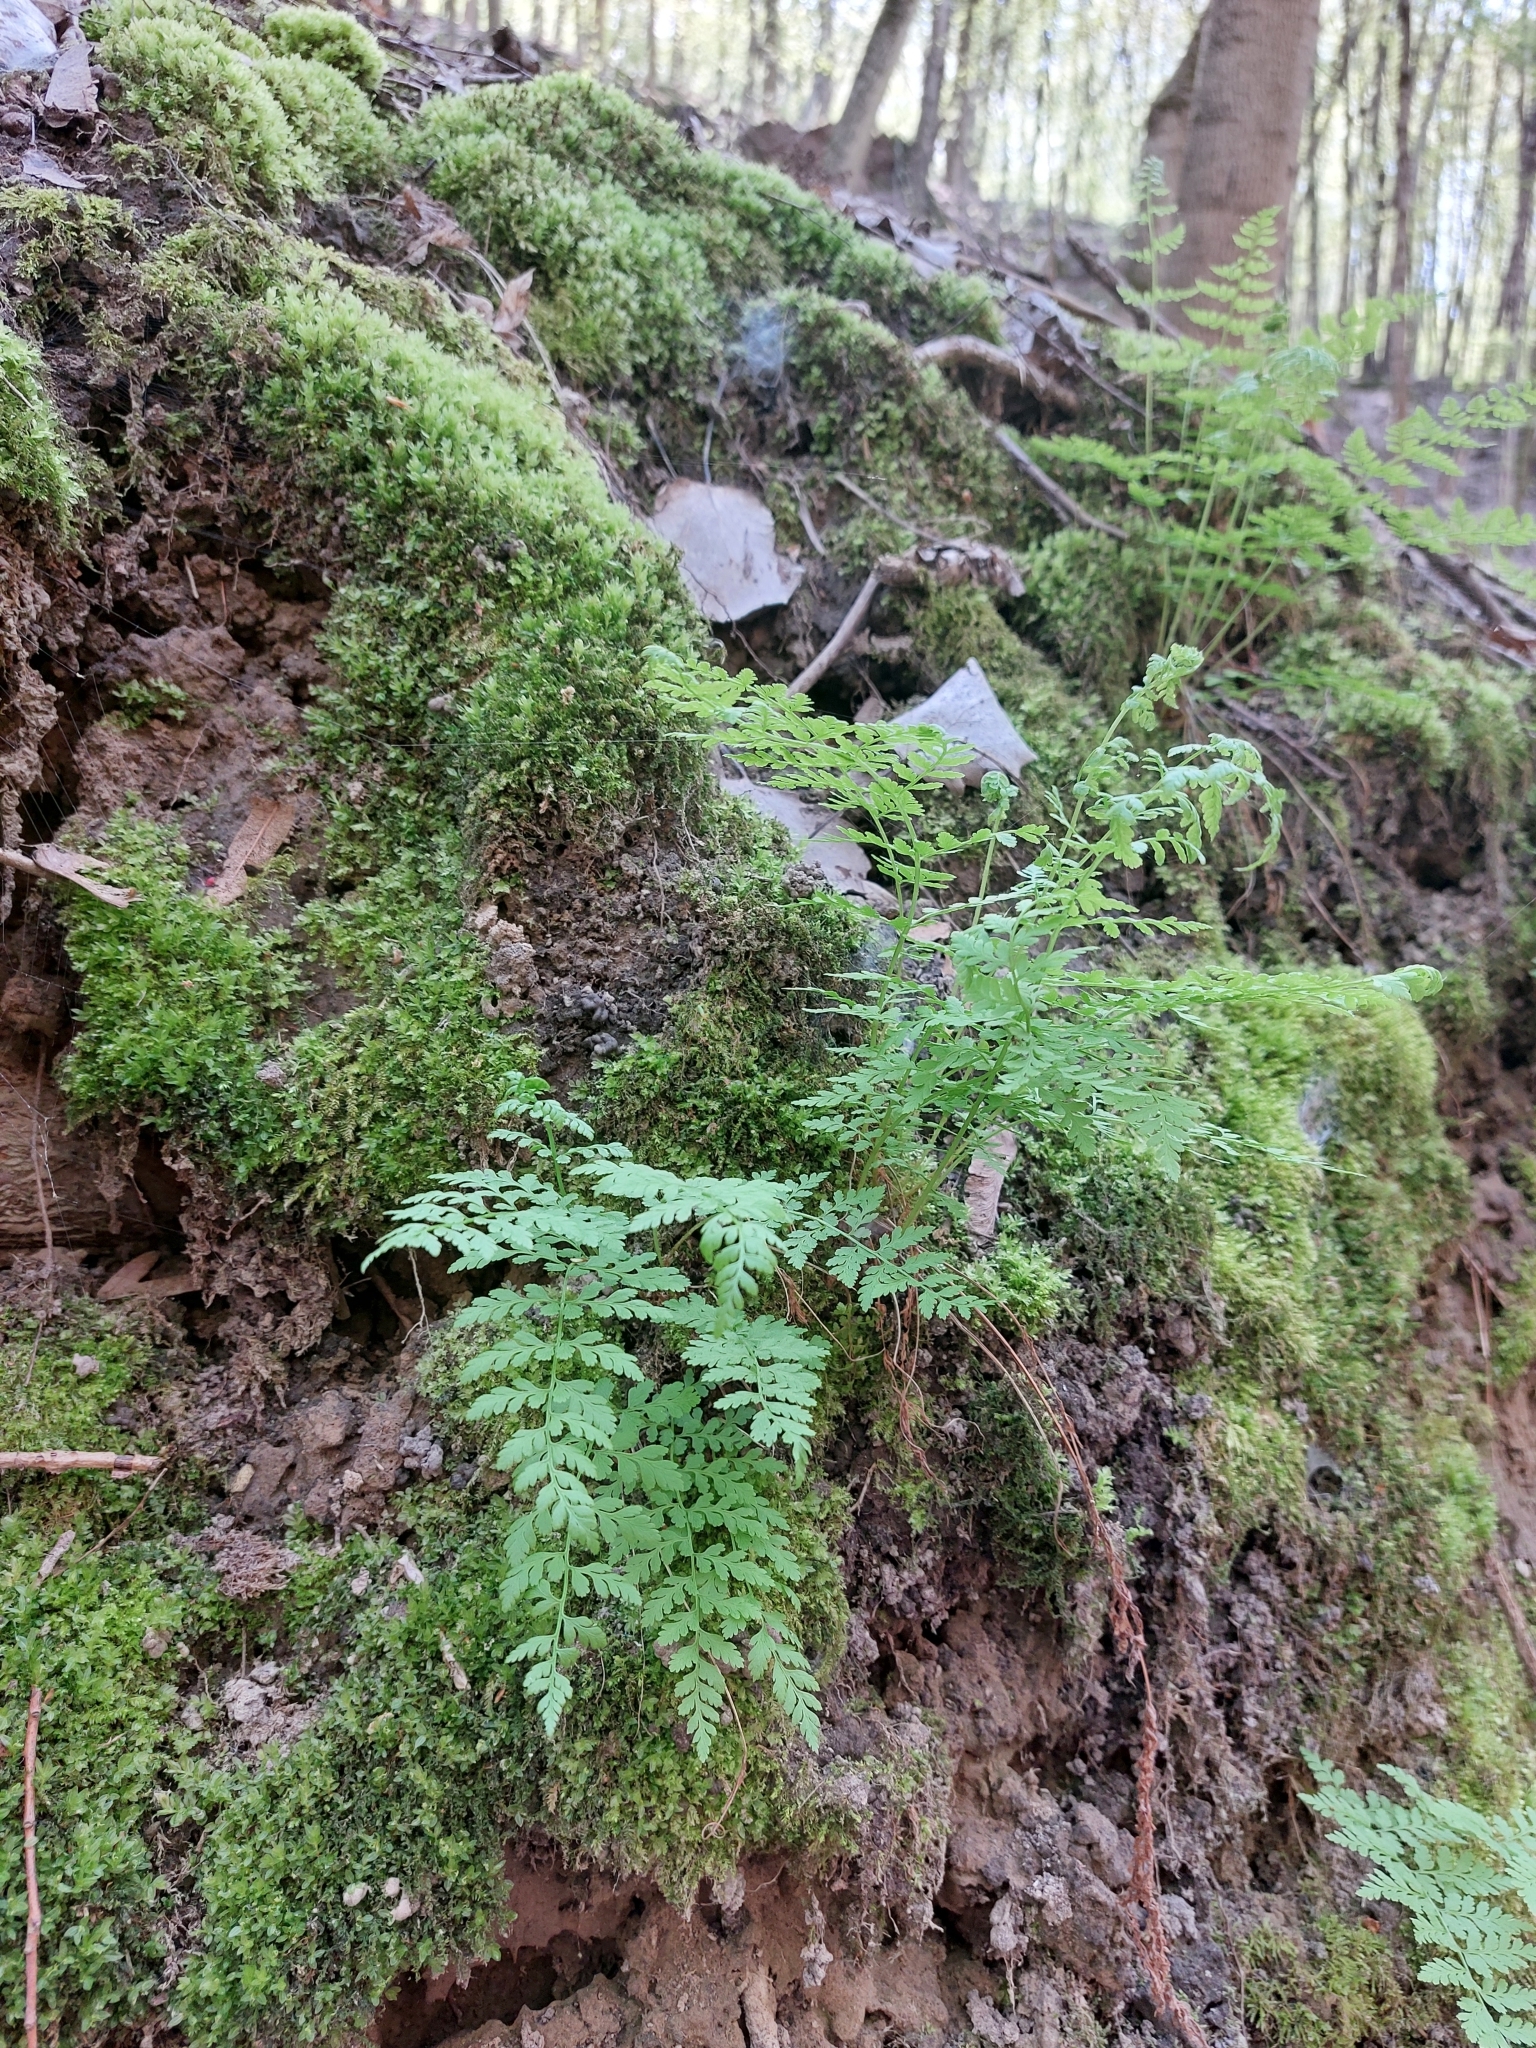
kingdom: Plantae
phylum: Tracheophyta
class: Polypodiopsida
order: Polypodiales
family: Cystopteridaceae
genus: Cystopteris
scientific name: Cystopteris fragilis
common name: Brittle bladder fern
